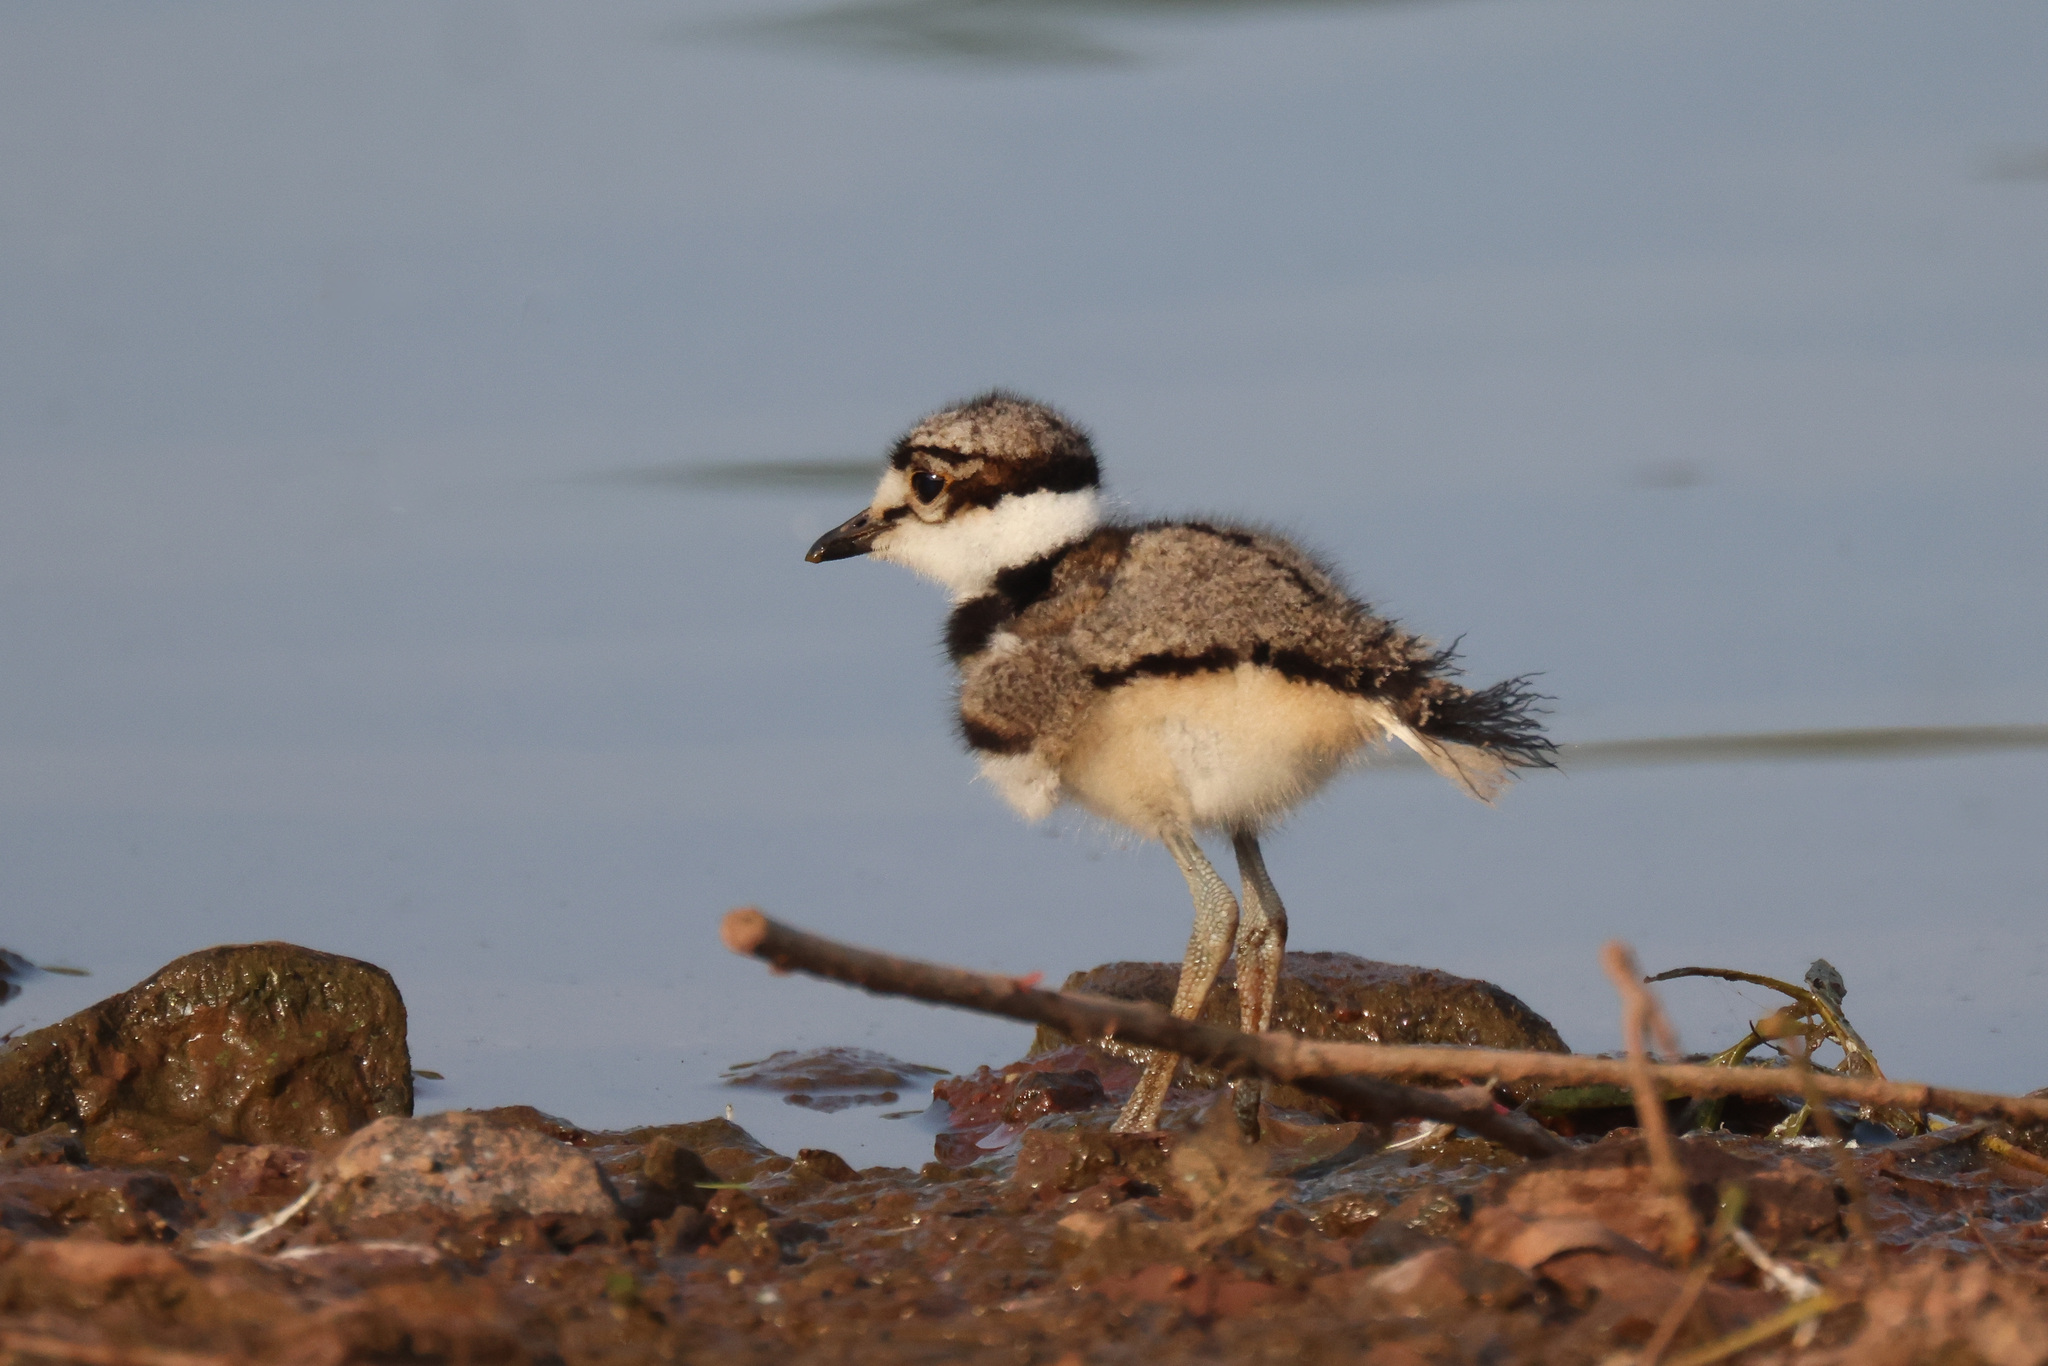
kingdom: Animalia
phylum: Chordata
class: Aves
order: Charadriiformes
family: Charadriidae
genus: Charadrius
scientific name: Charadrius vociferus
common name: Killdeer
